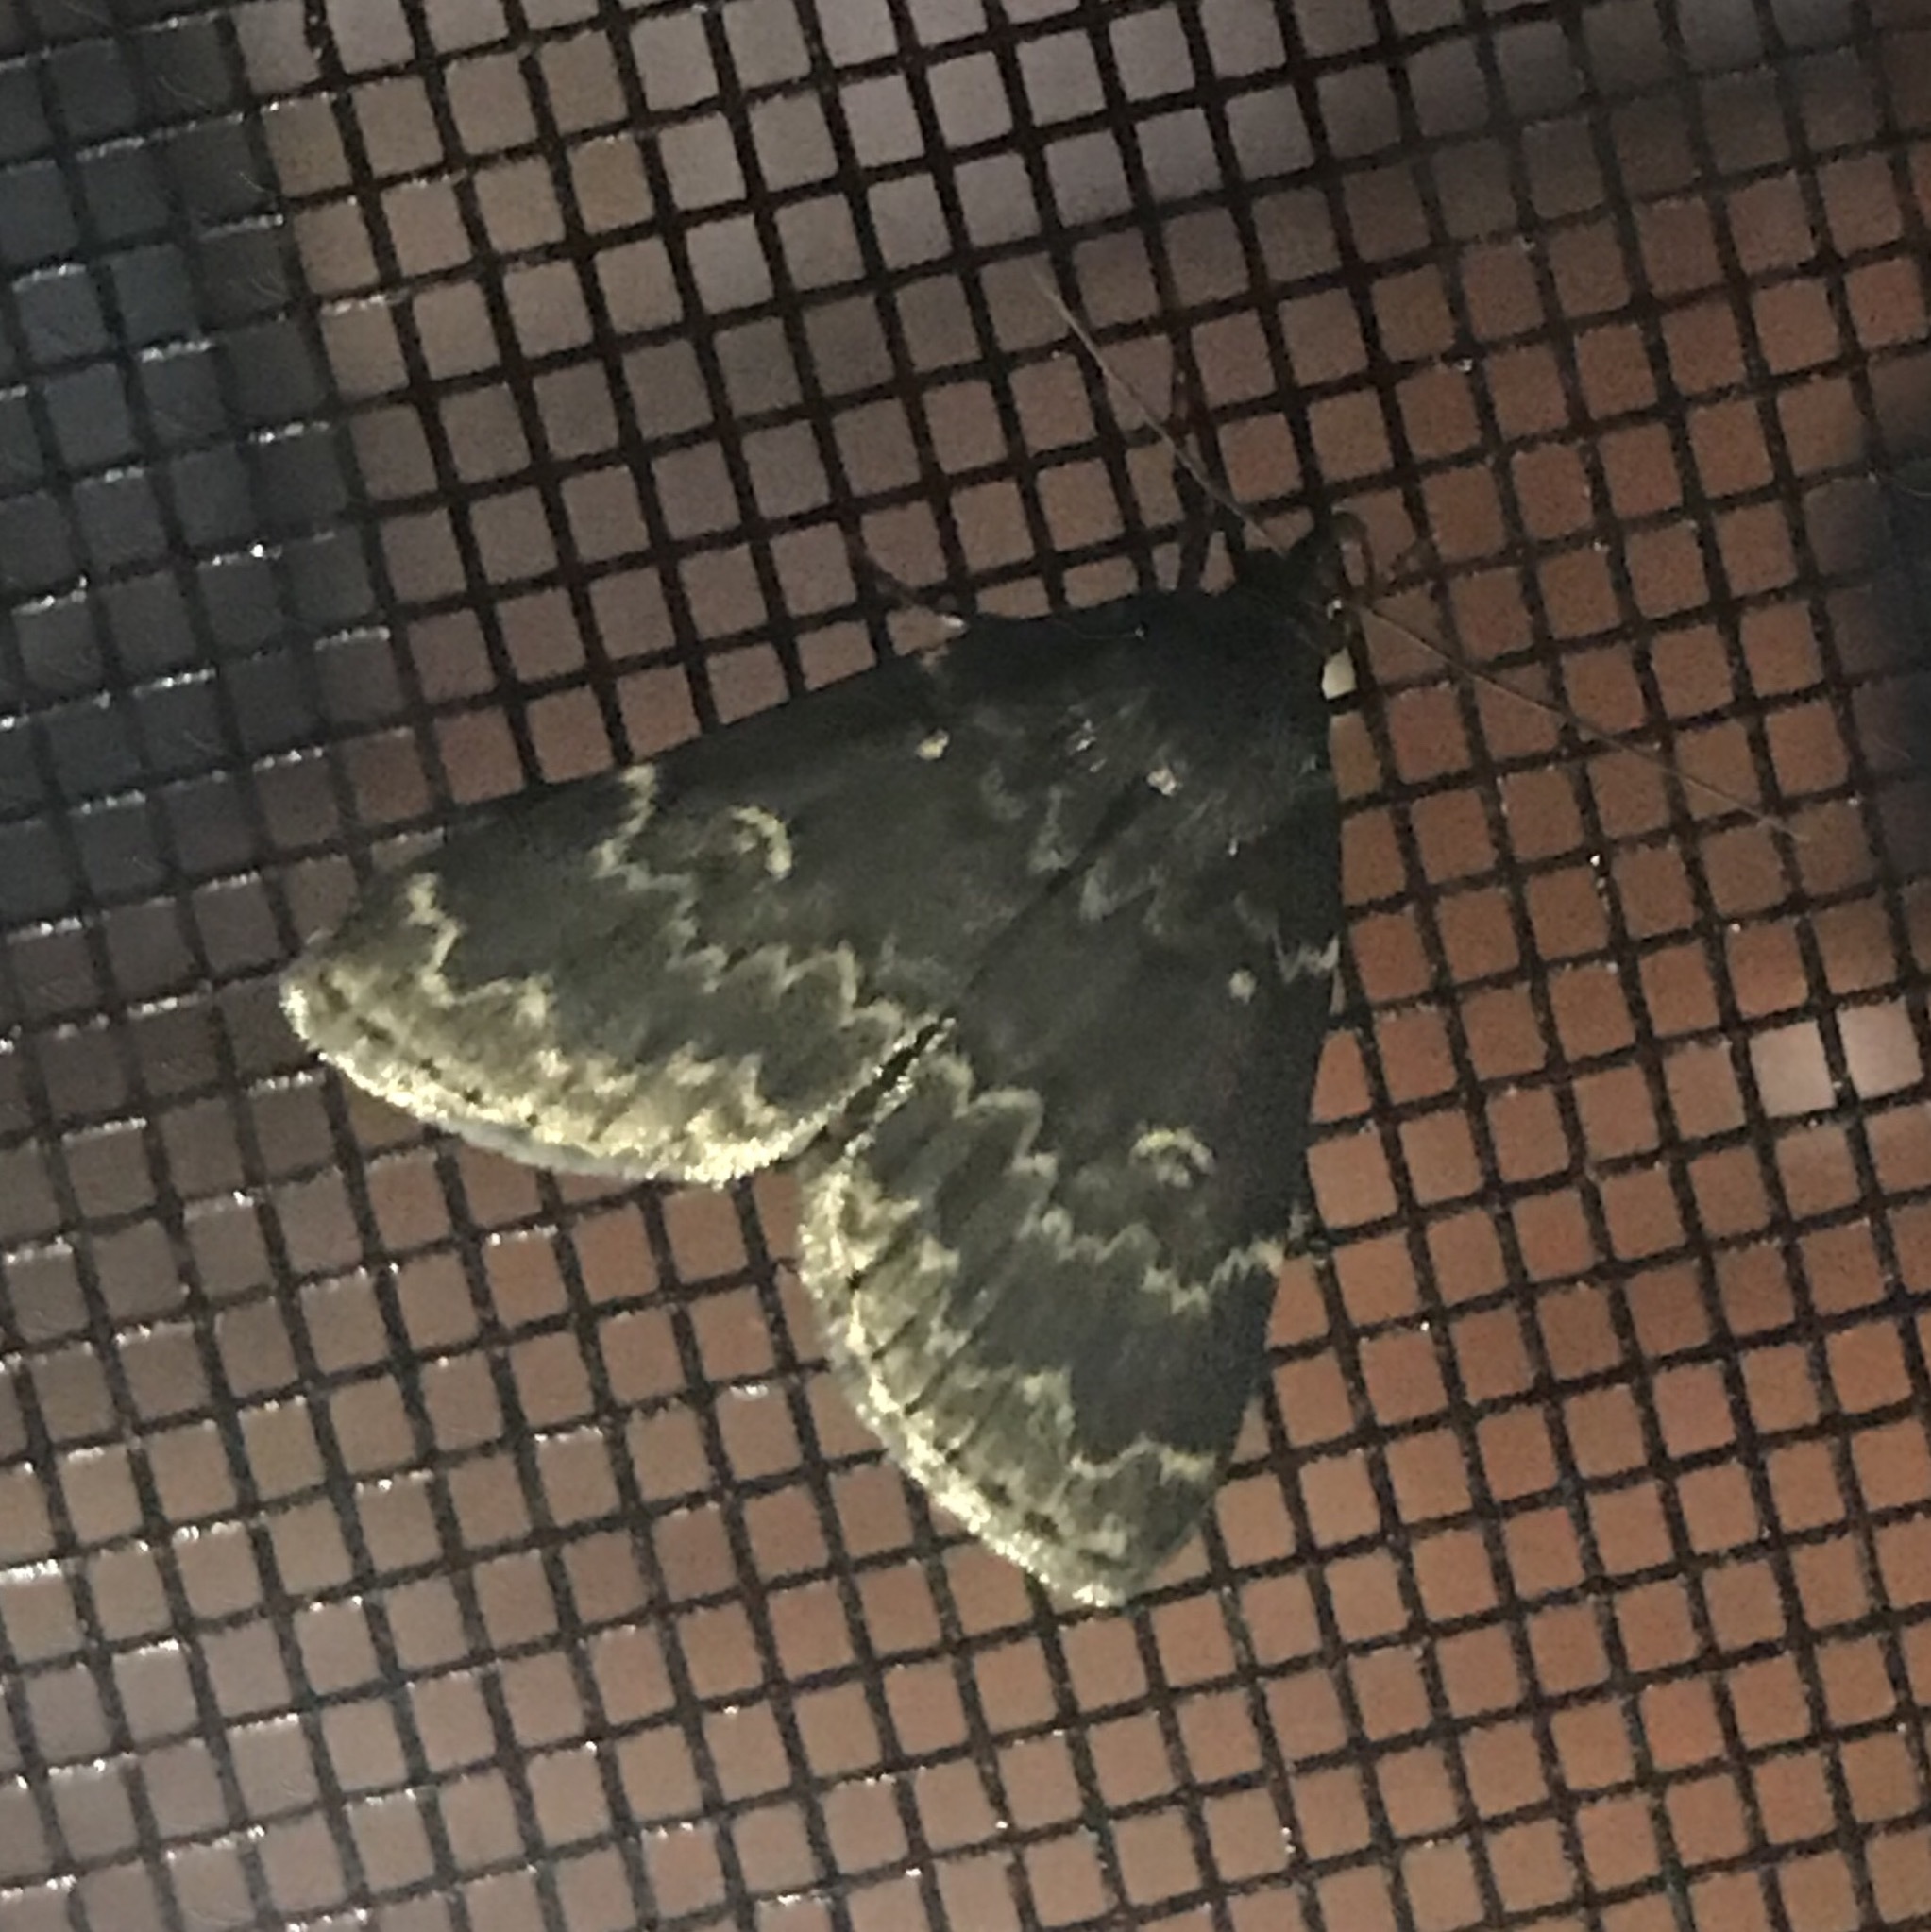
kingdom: Animalia
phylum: Arthropoda
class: Insecta
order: Lepidoptera
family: Erebidae
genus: Idia
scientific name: Idia lubricalis
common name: Twin-striped tabby
